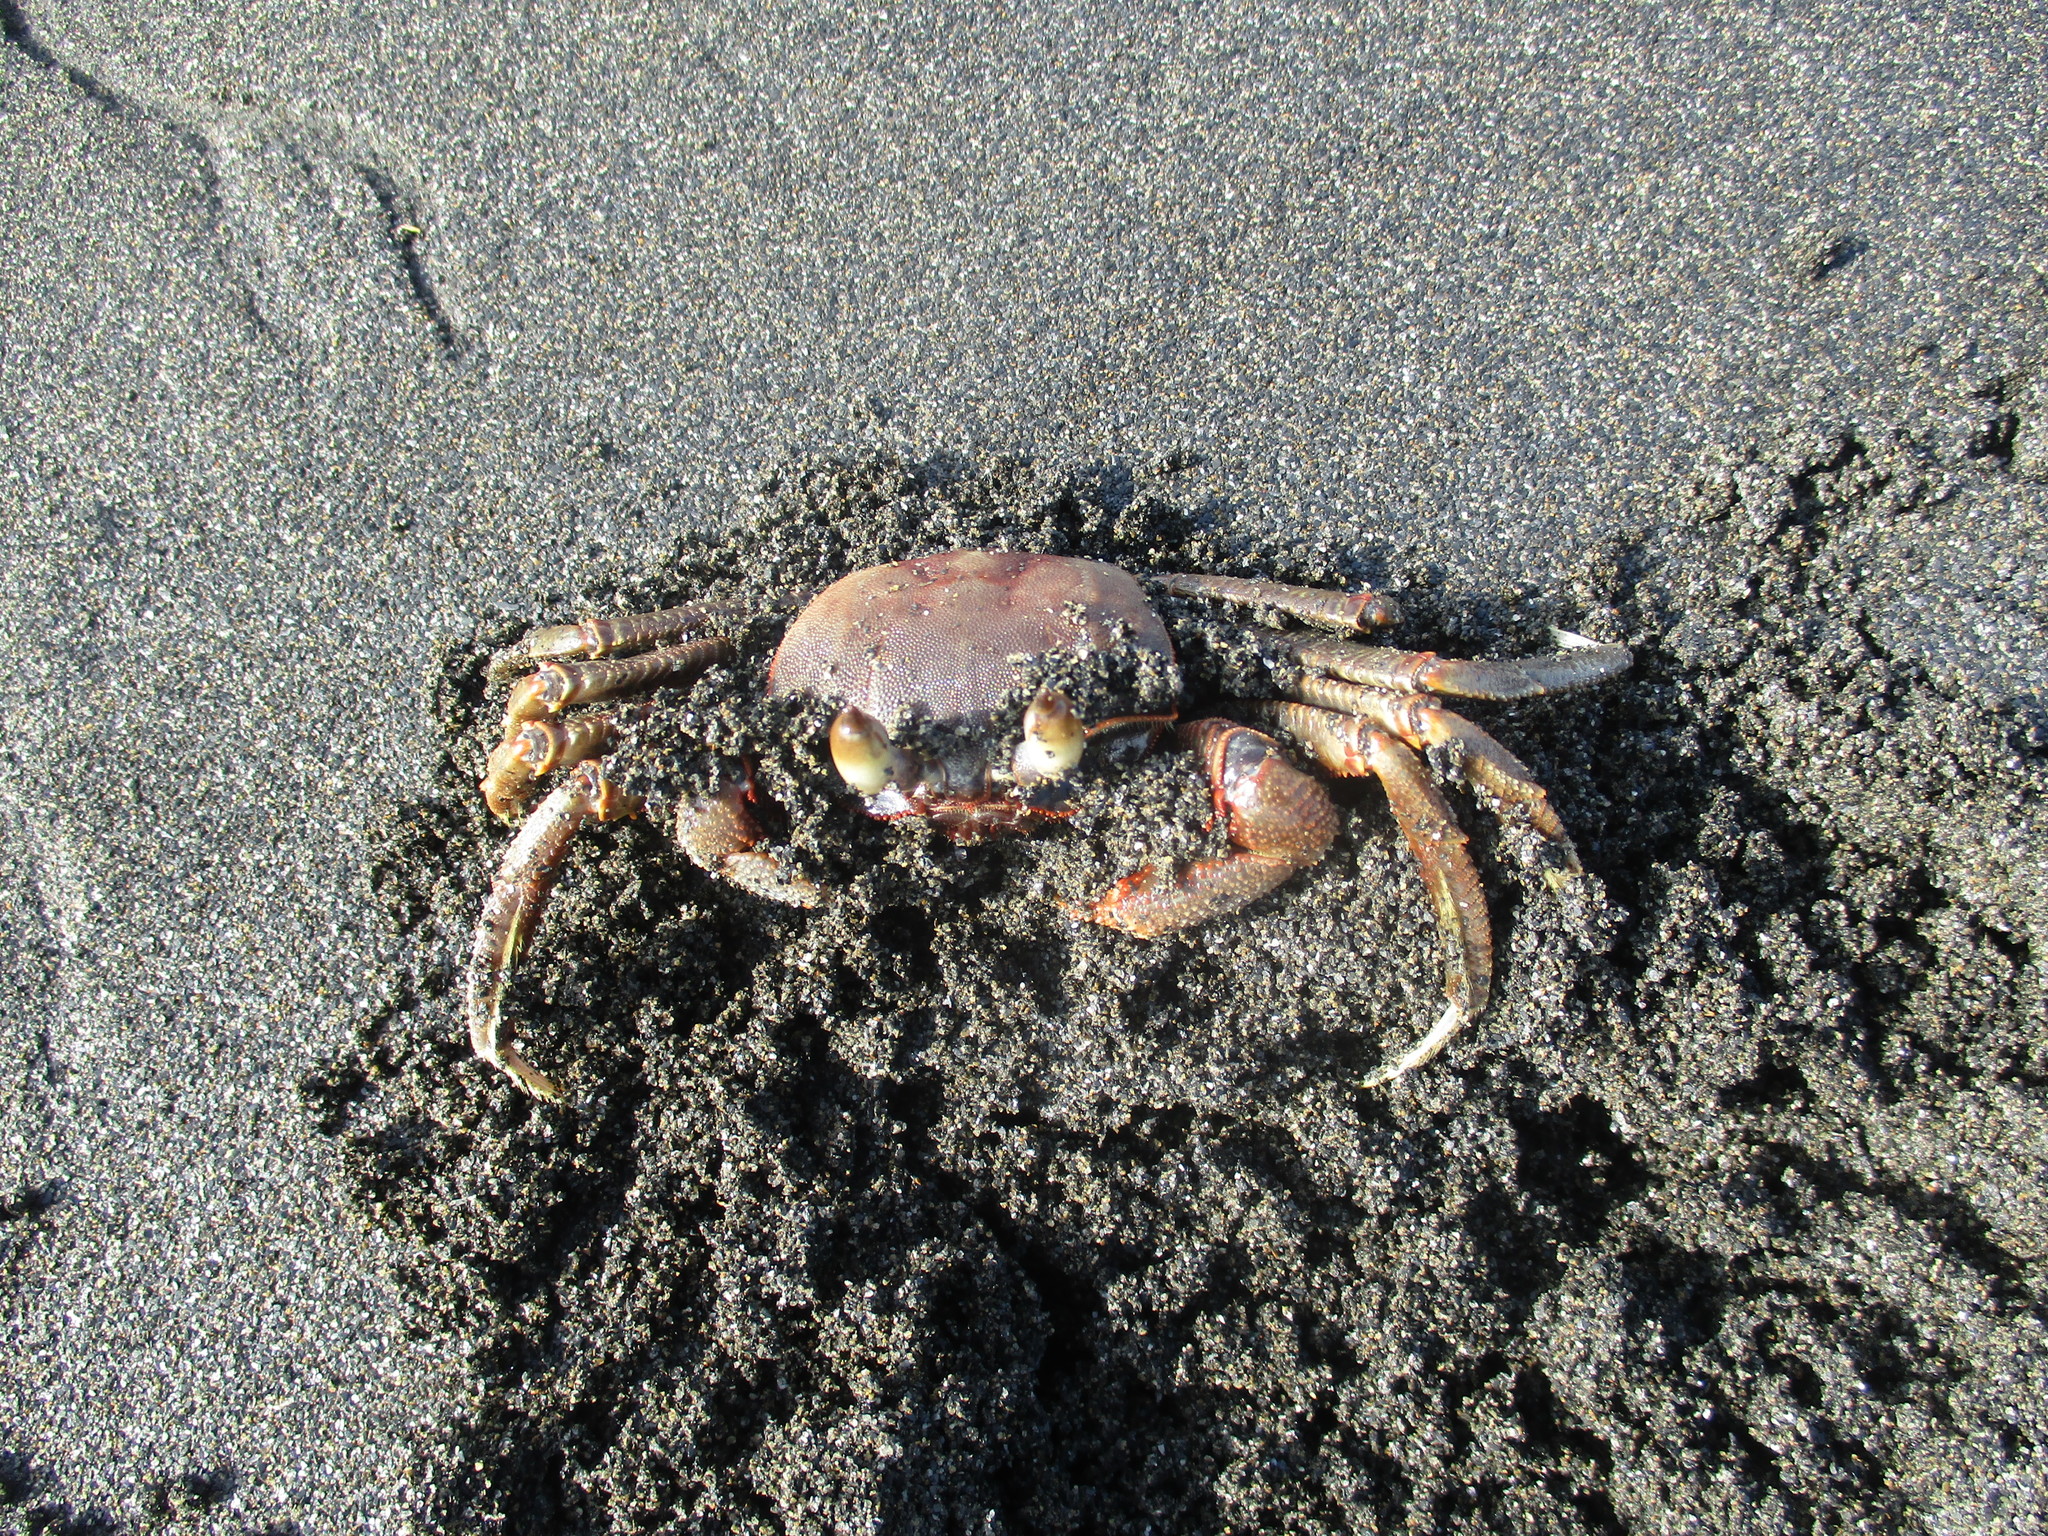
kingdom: Animalia
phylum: Arthropoda
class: Malacostraca
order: Decapoda
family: Ocypodidae
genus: Ocypode
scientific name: Ocypode ceratophthalmus
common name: Indo-pacific ghost crab
